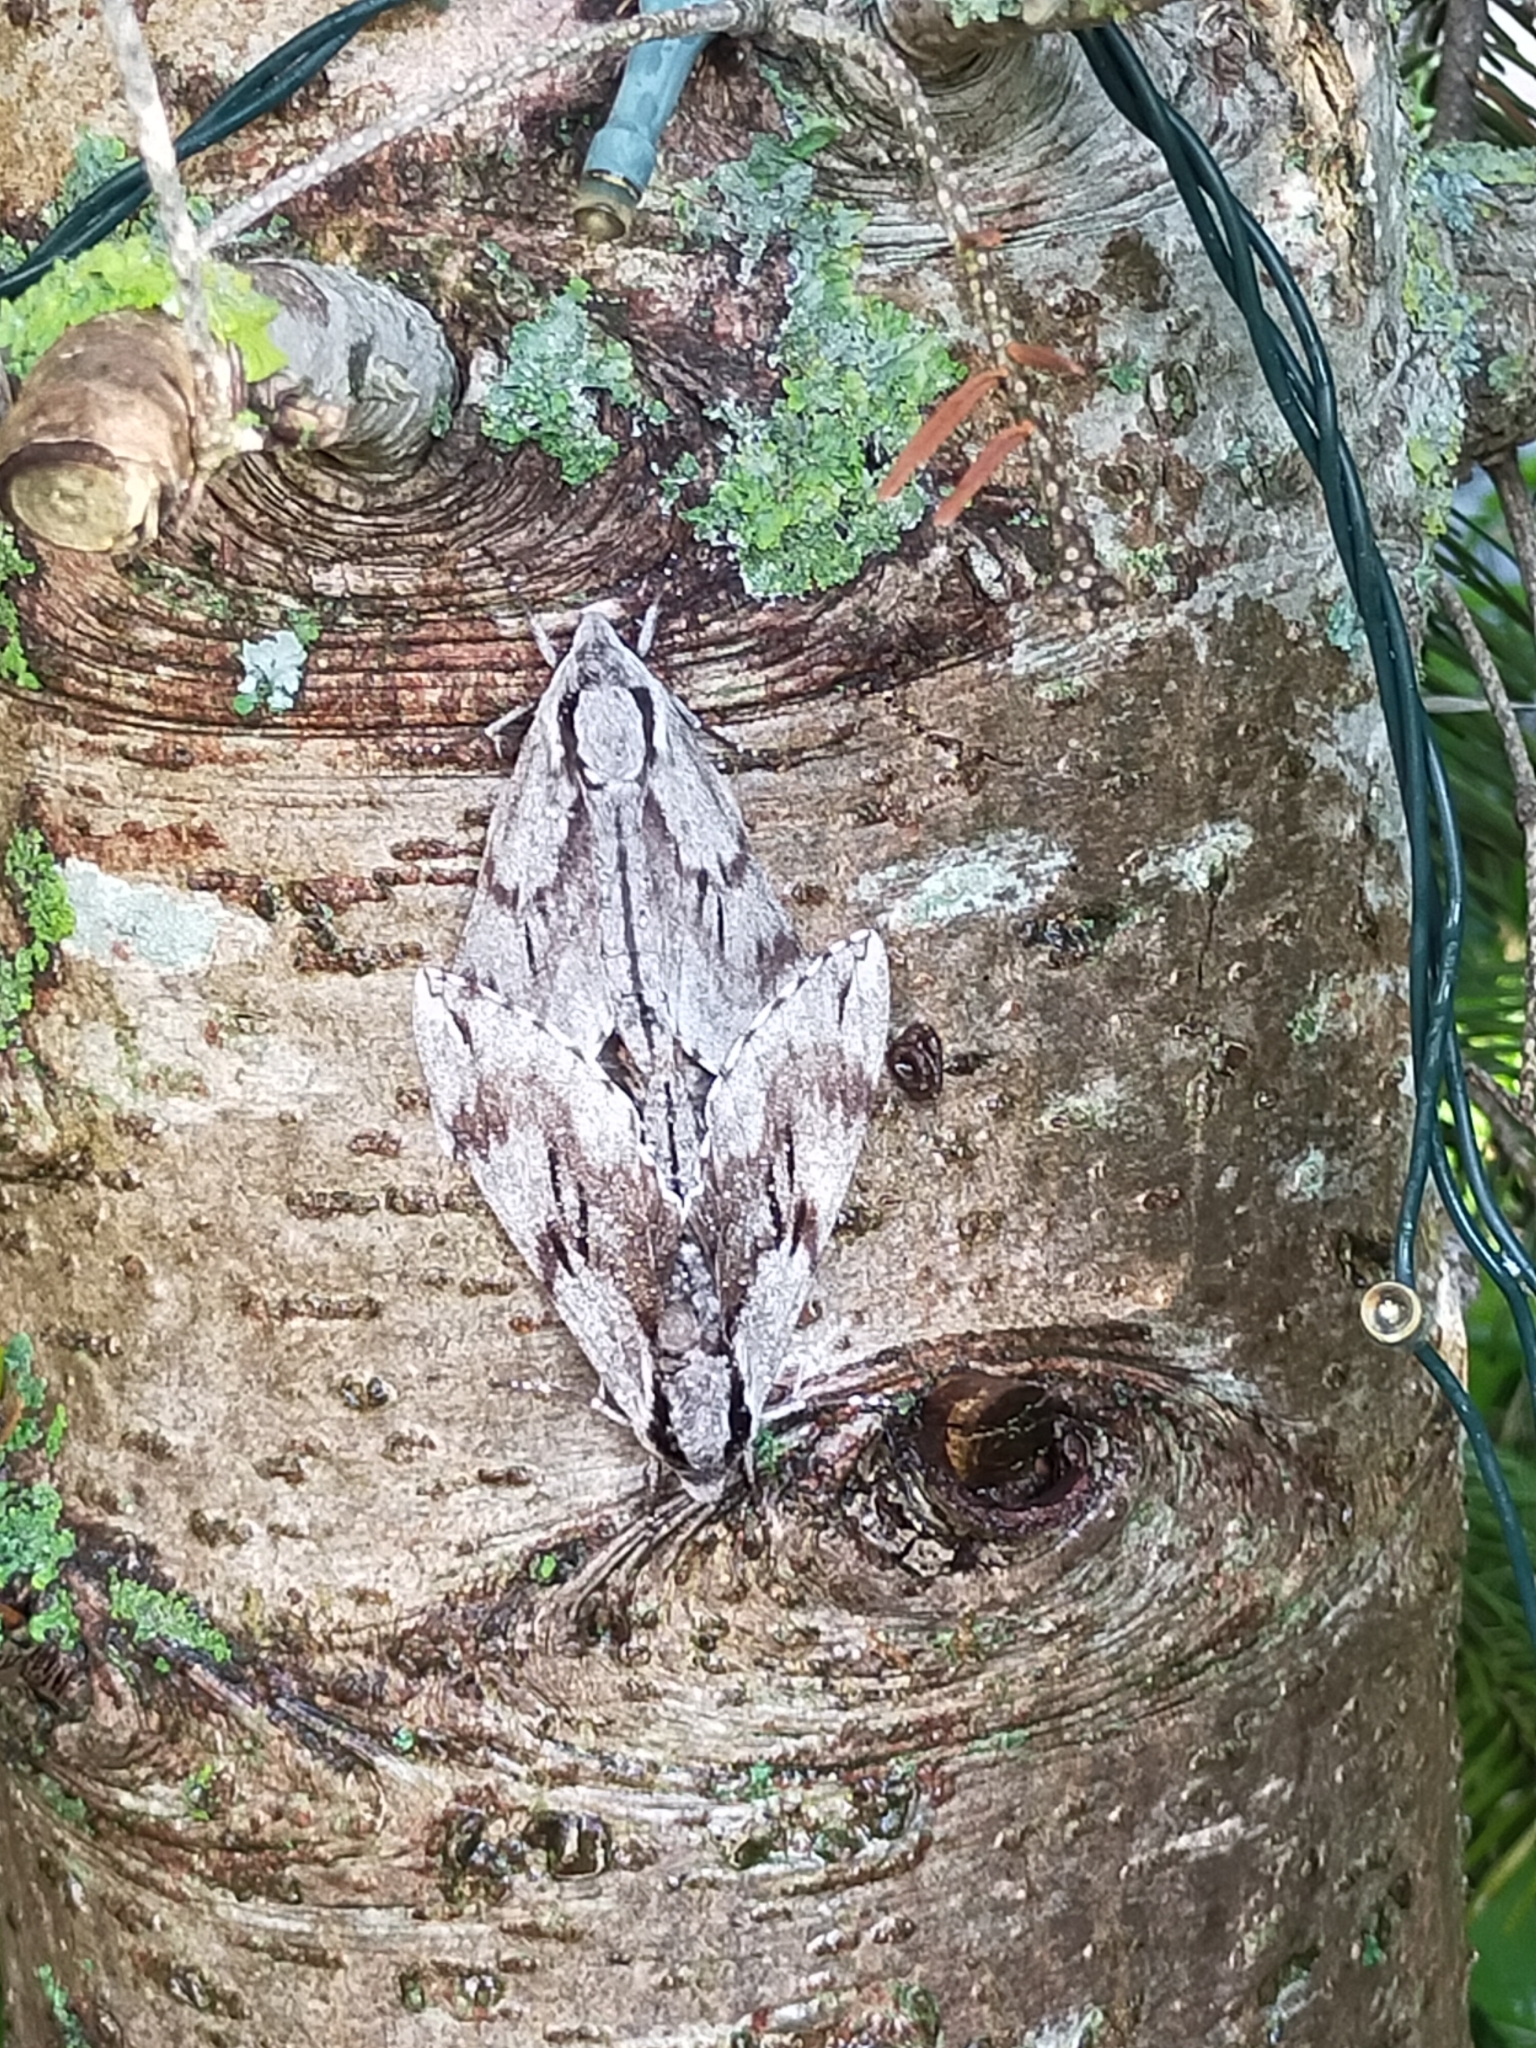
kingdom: Animalia
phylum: Arthropoda
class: Insecta
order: Lepidoptera
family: Sphingidae
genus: Sphinx
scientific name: Sphinx pinastri
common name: Pine hawk-moth
